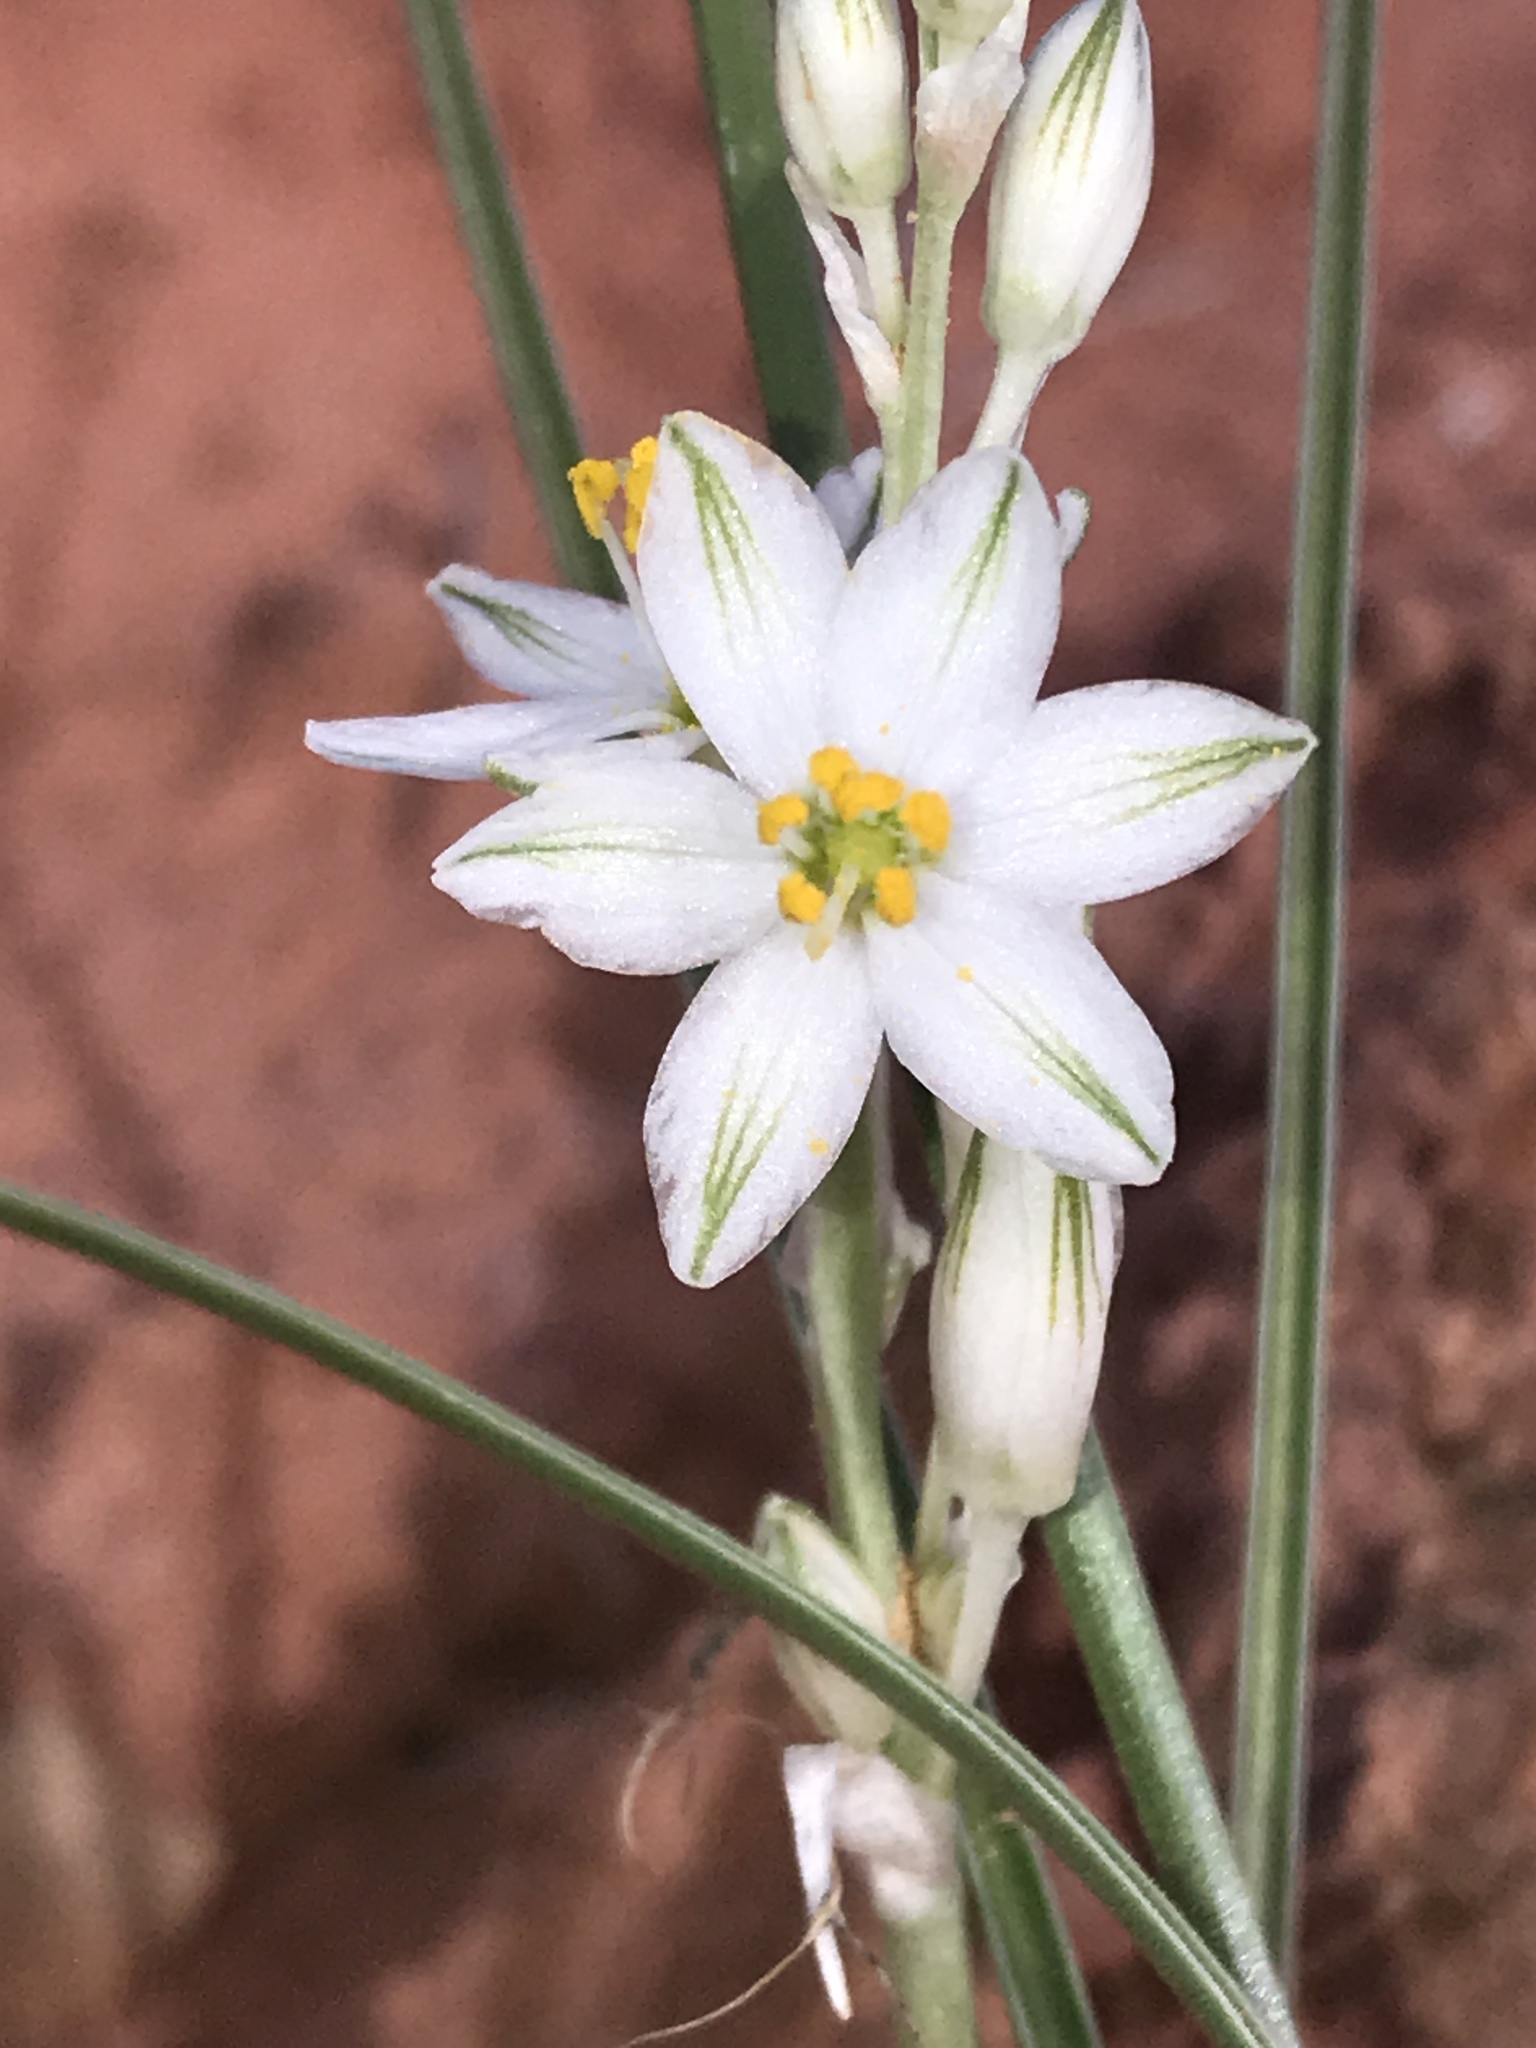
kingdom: Plantae
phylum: Tracheophyta
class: Liliopsida
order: Asparagales
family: Asparagaceae
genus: Eremocrinum
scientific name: Eremocrinum albomarginatum
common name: Sand-lily
